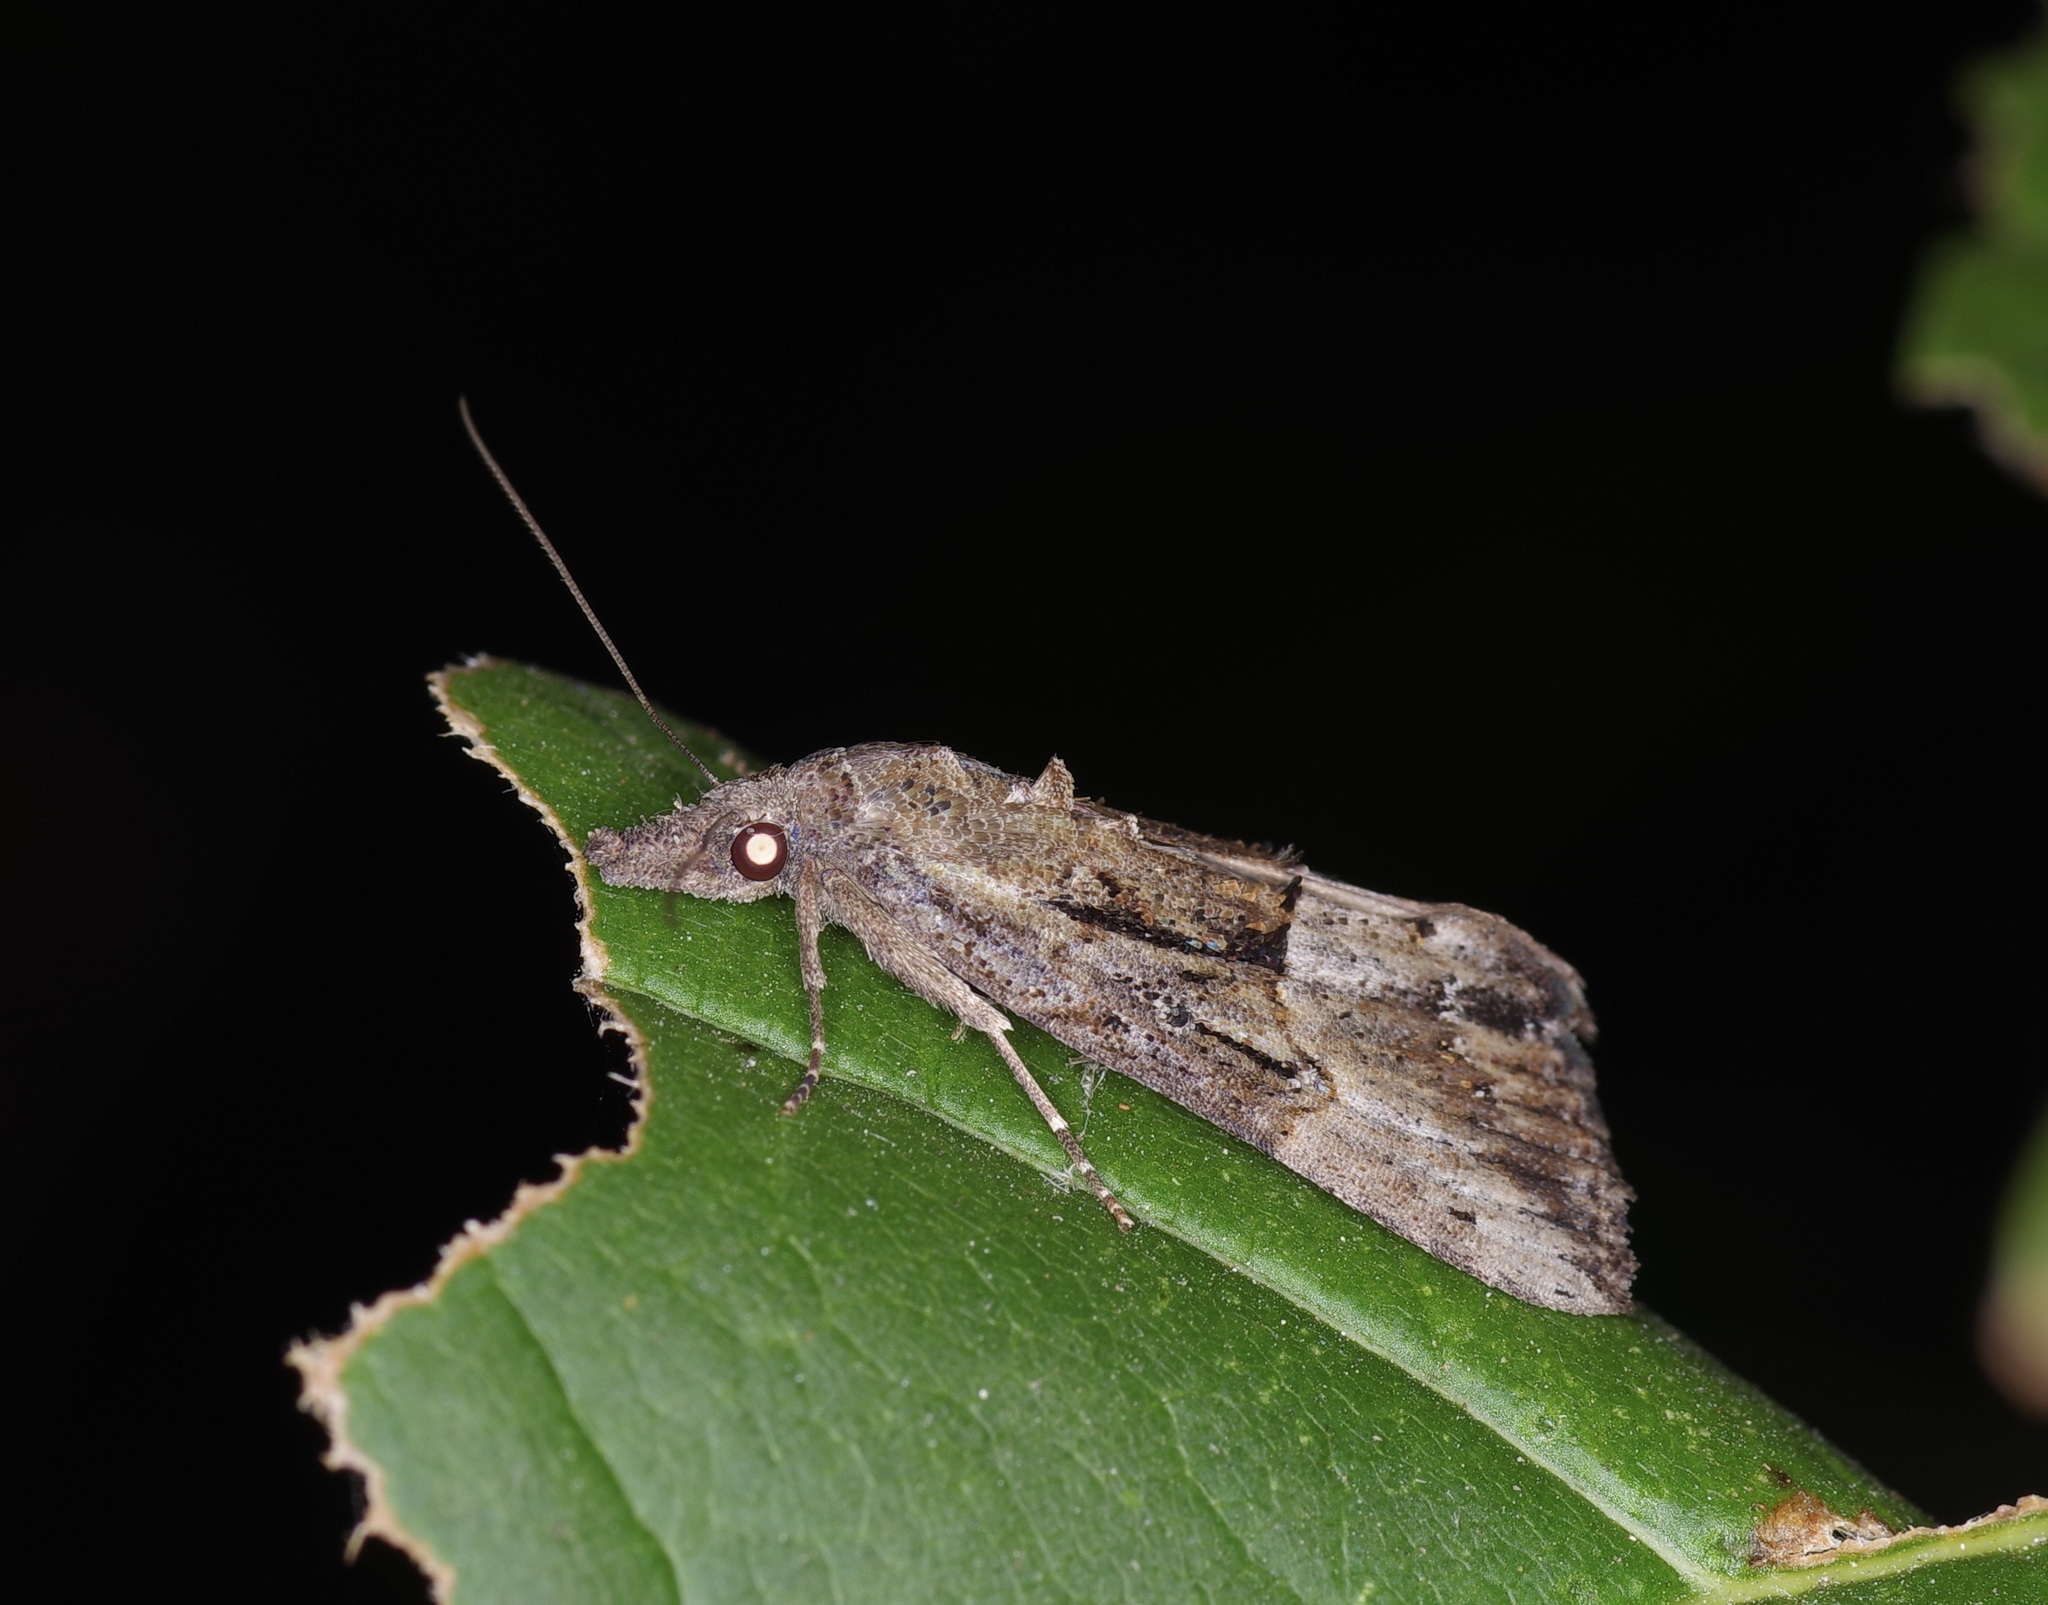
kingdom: Animalia
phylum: Arthropoda
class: Insecta
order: Lepidoptera
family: Erebidae
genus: Hypena
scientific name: Hypena scabra
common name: Green cloverworm
